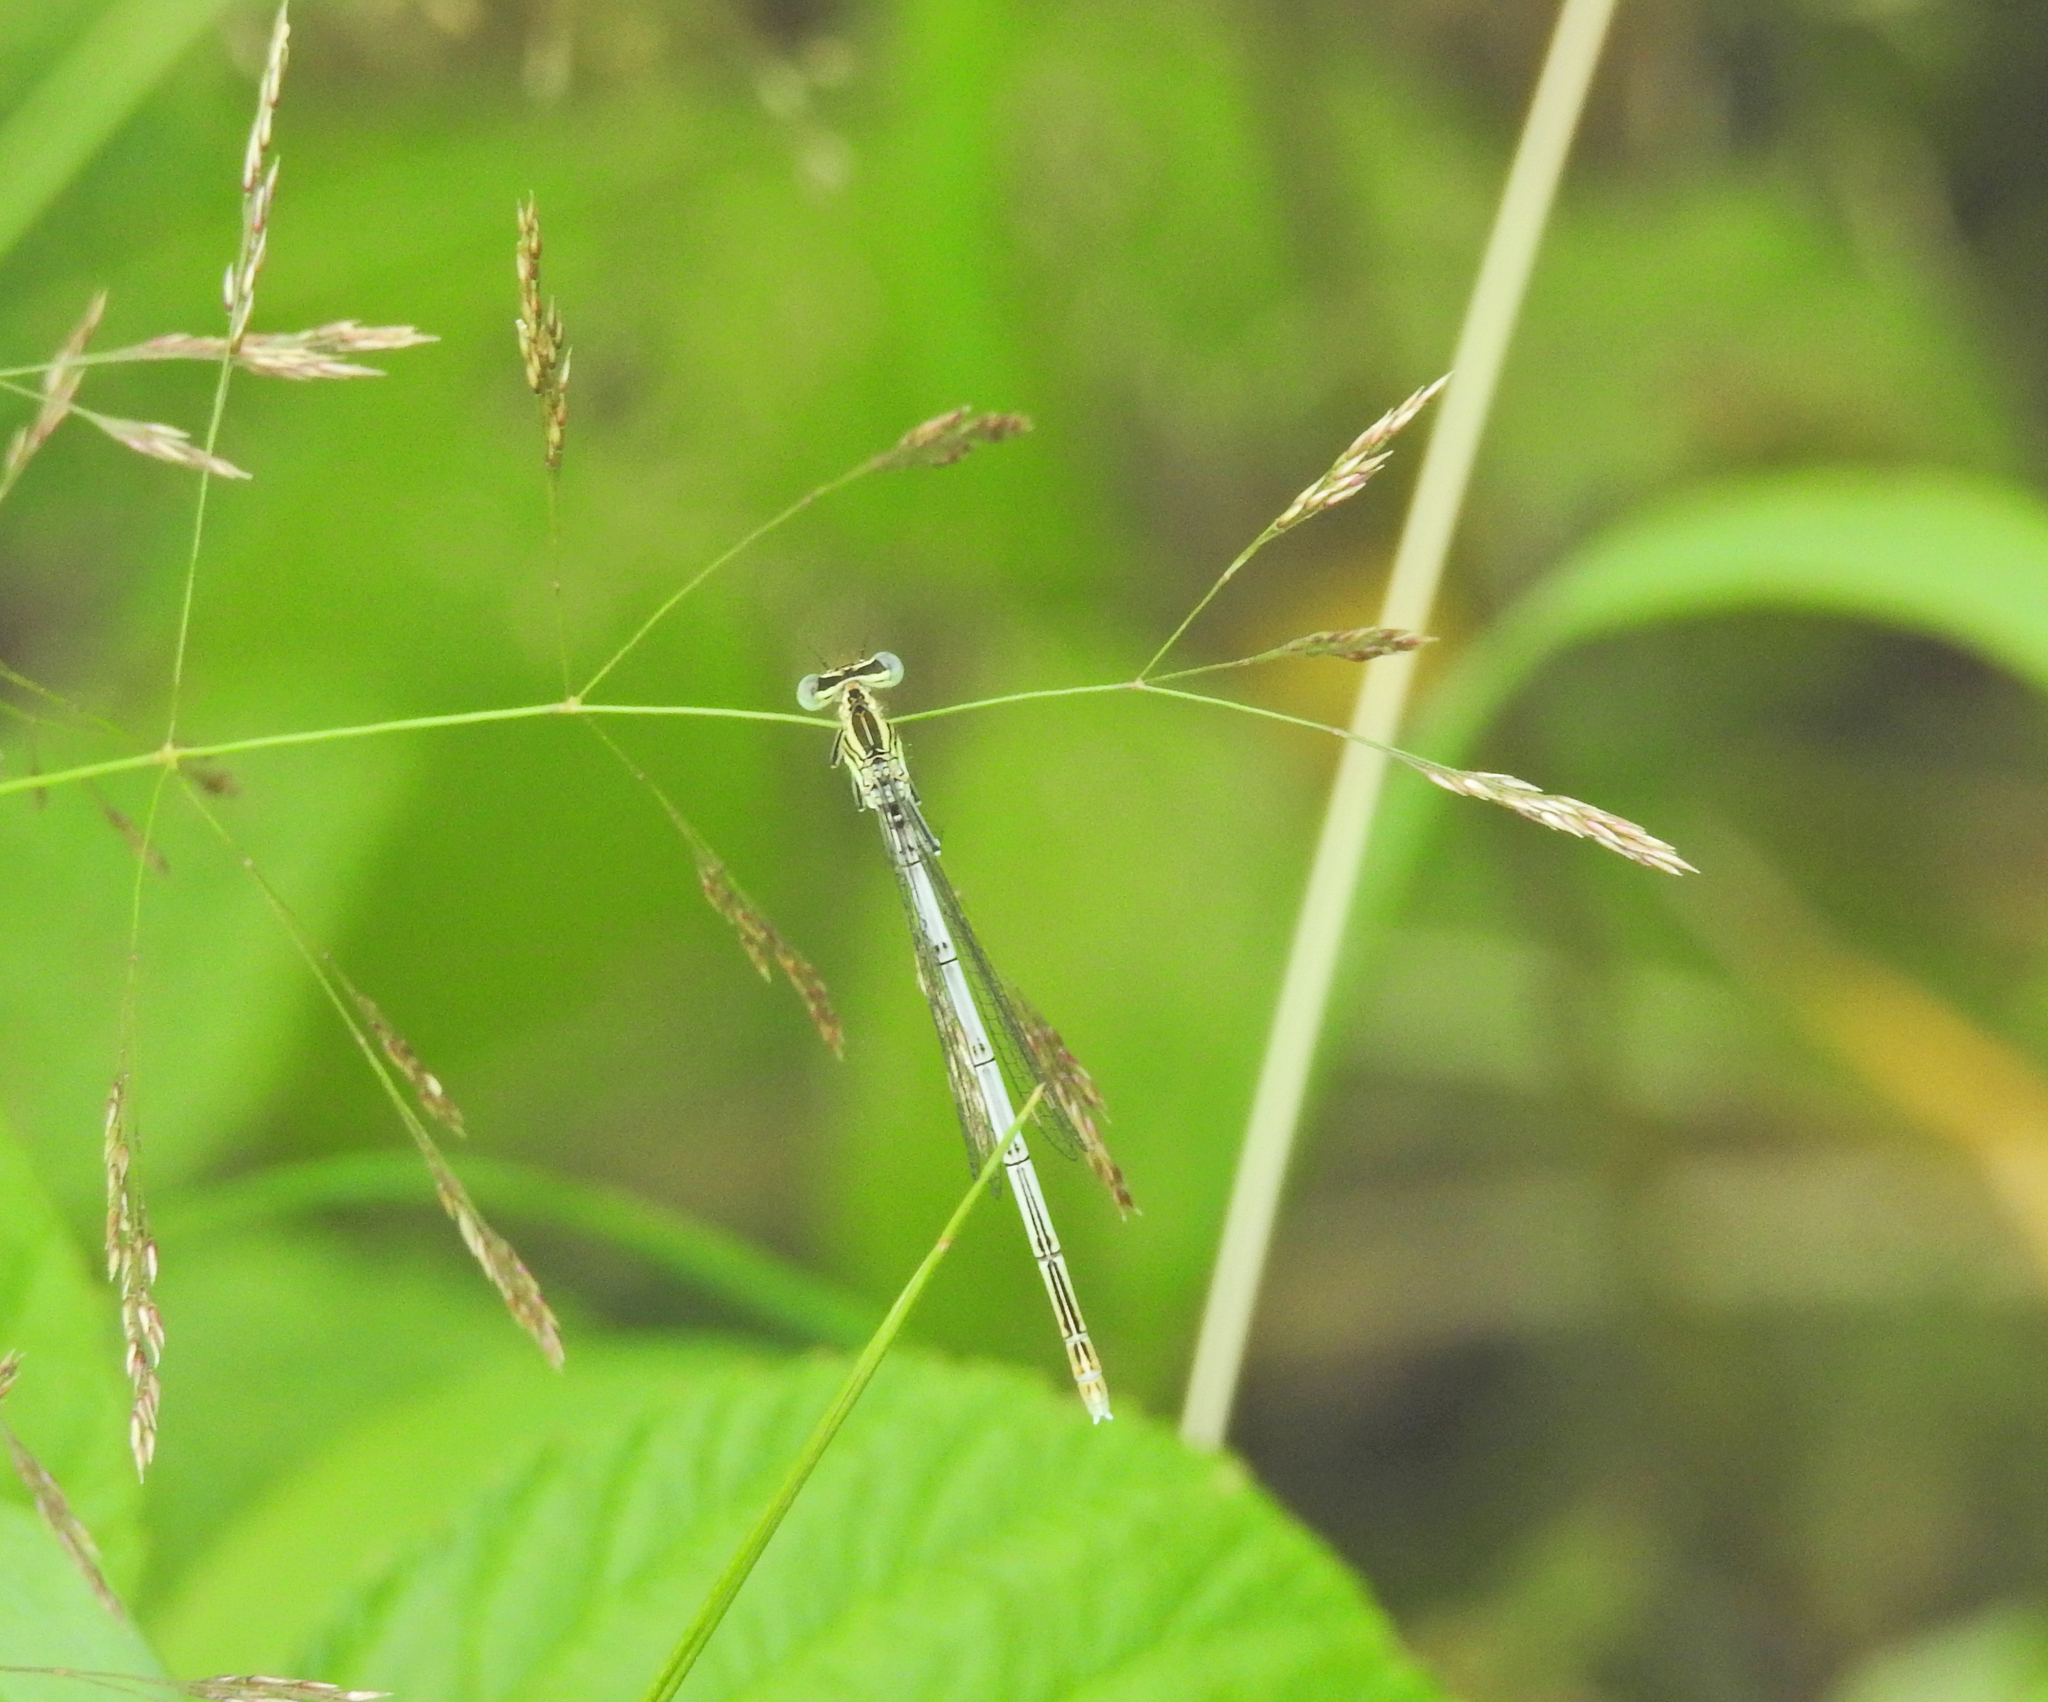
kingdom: Animalia
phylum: Arthropoda
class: Insecta
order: Odonata
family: Platycnemididae
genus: Platycnemis
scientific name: Platycnemis pennipes
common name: White-legged damselfly
